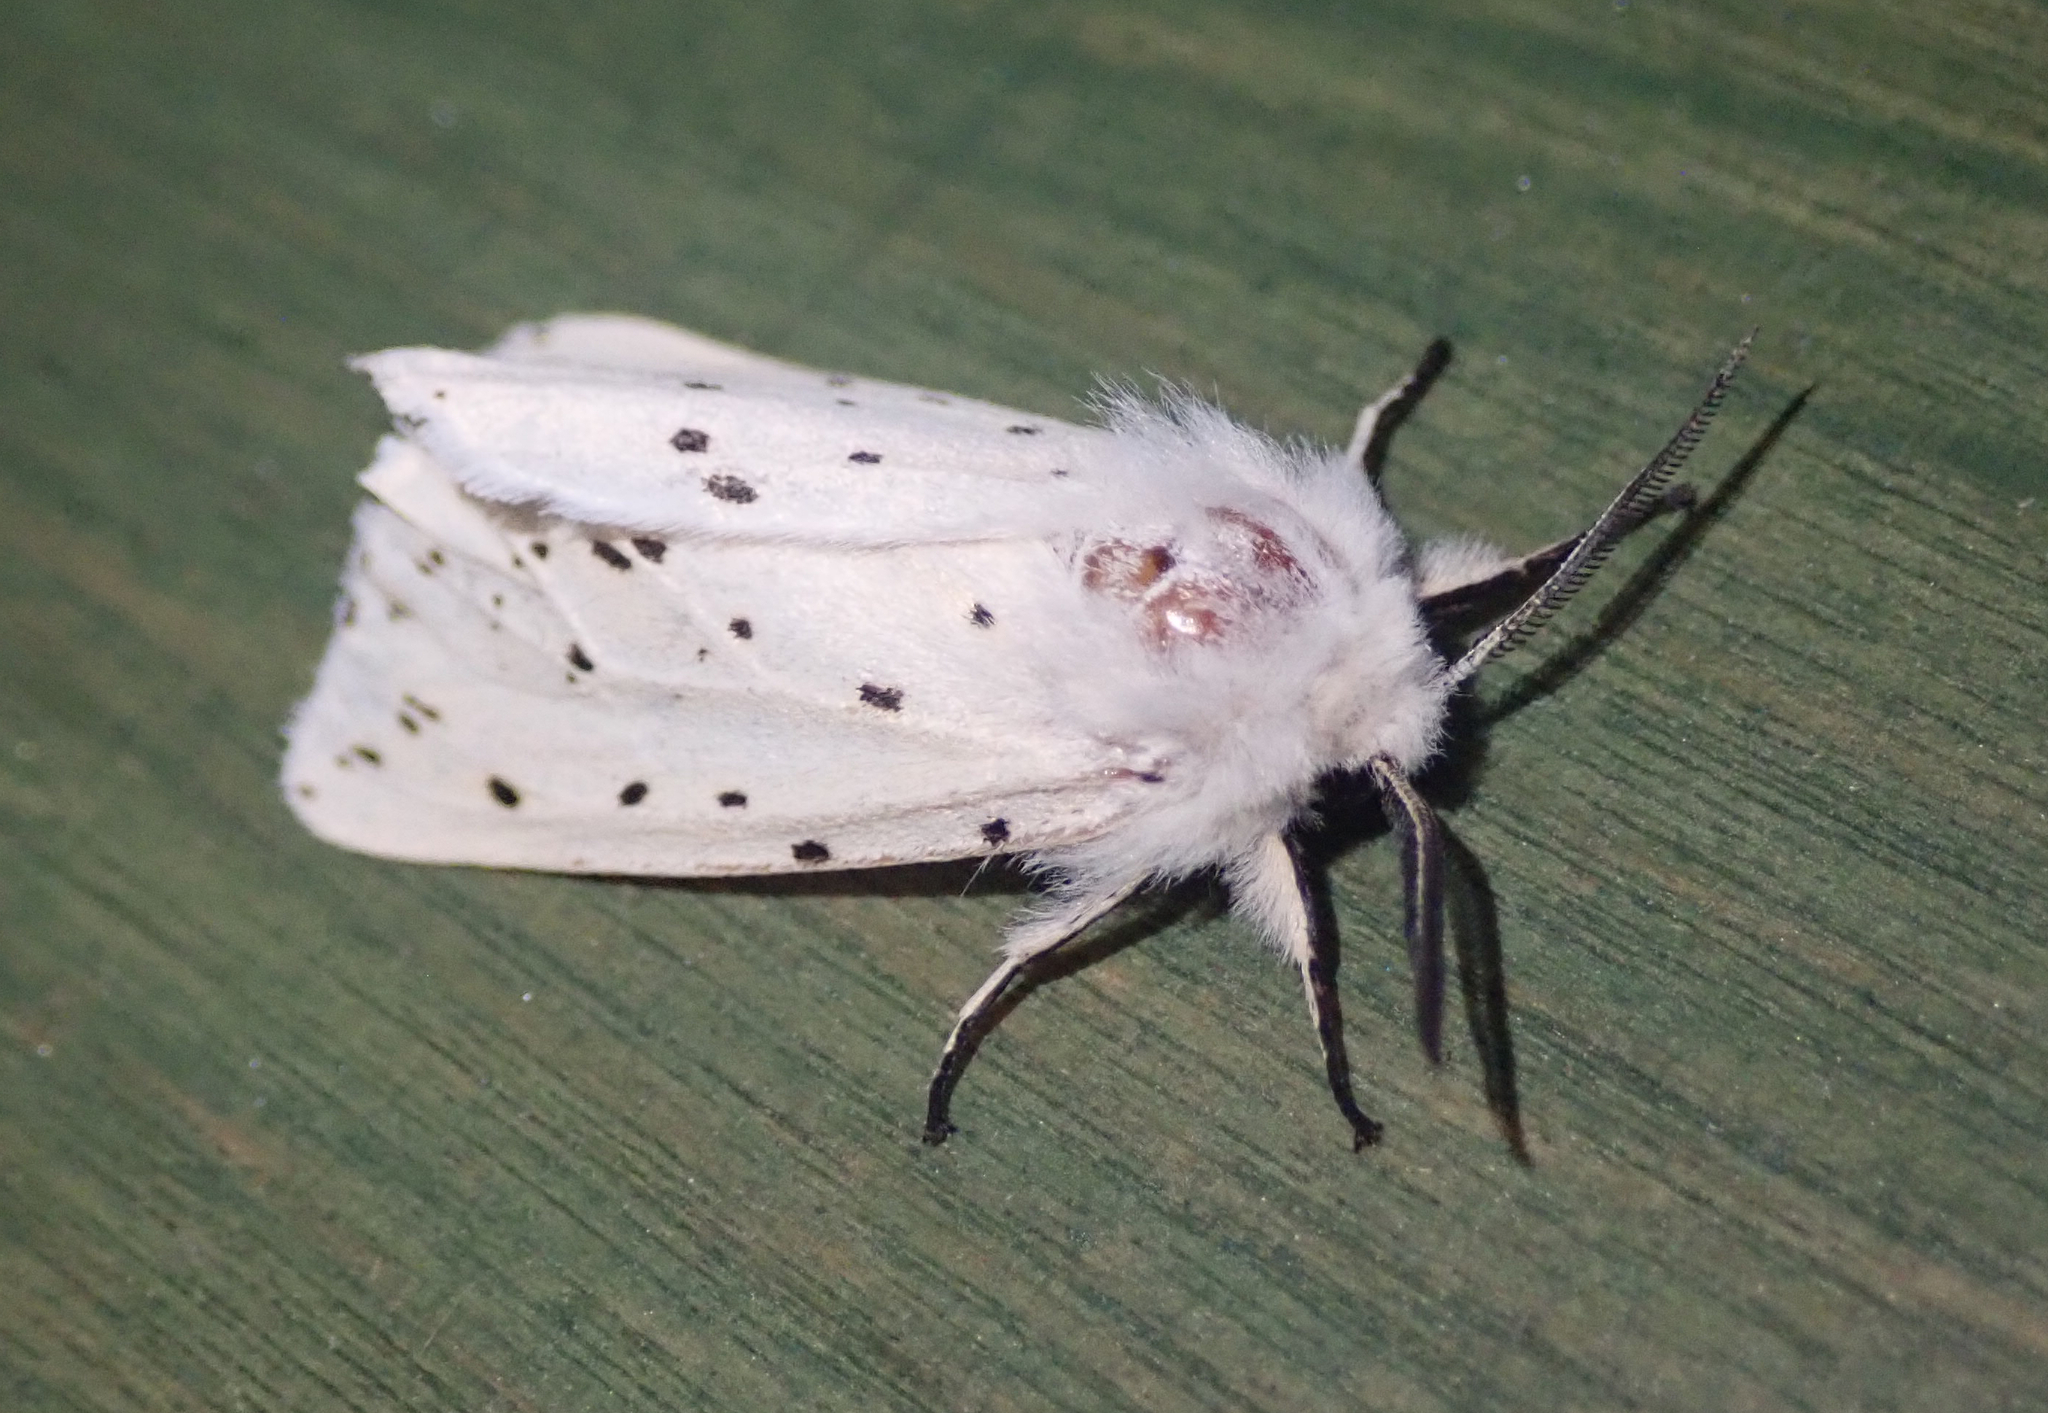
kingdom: Animalia
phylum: Arthropoda
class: Insecta
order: Lepidoptera
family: Erebidae
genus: Spilosoma
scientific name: Spilosoma lubricipeda
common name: White ermine
